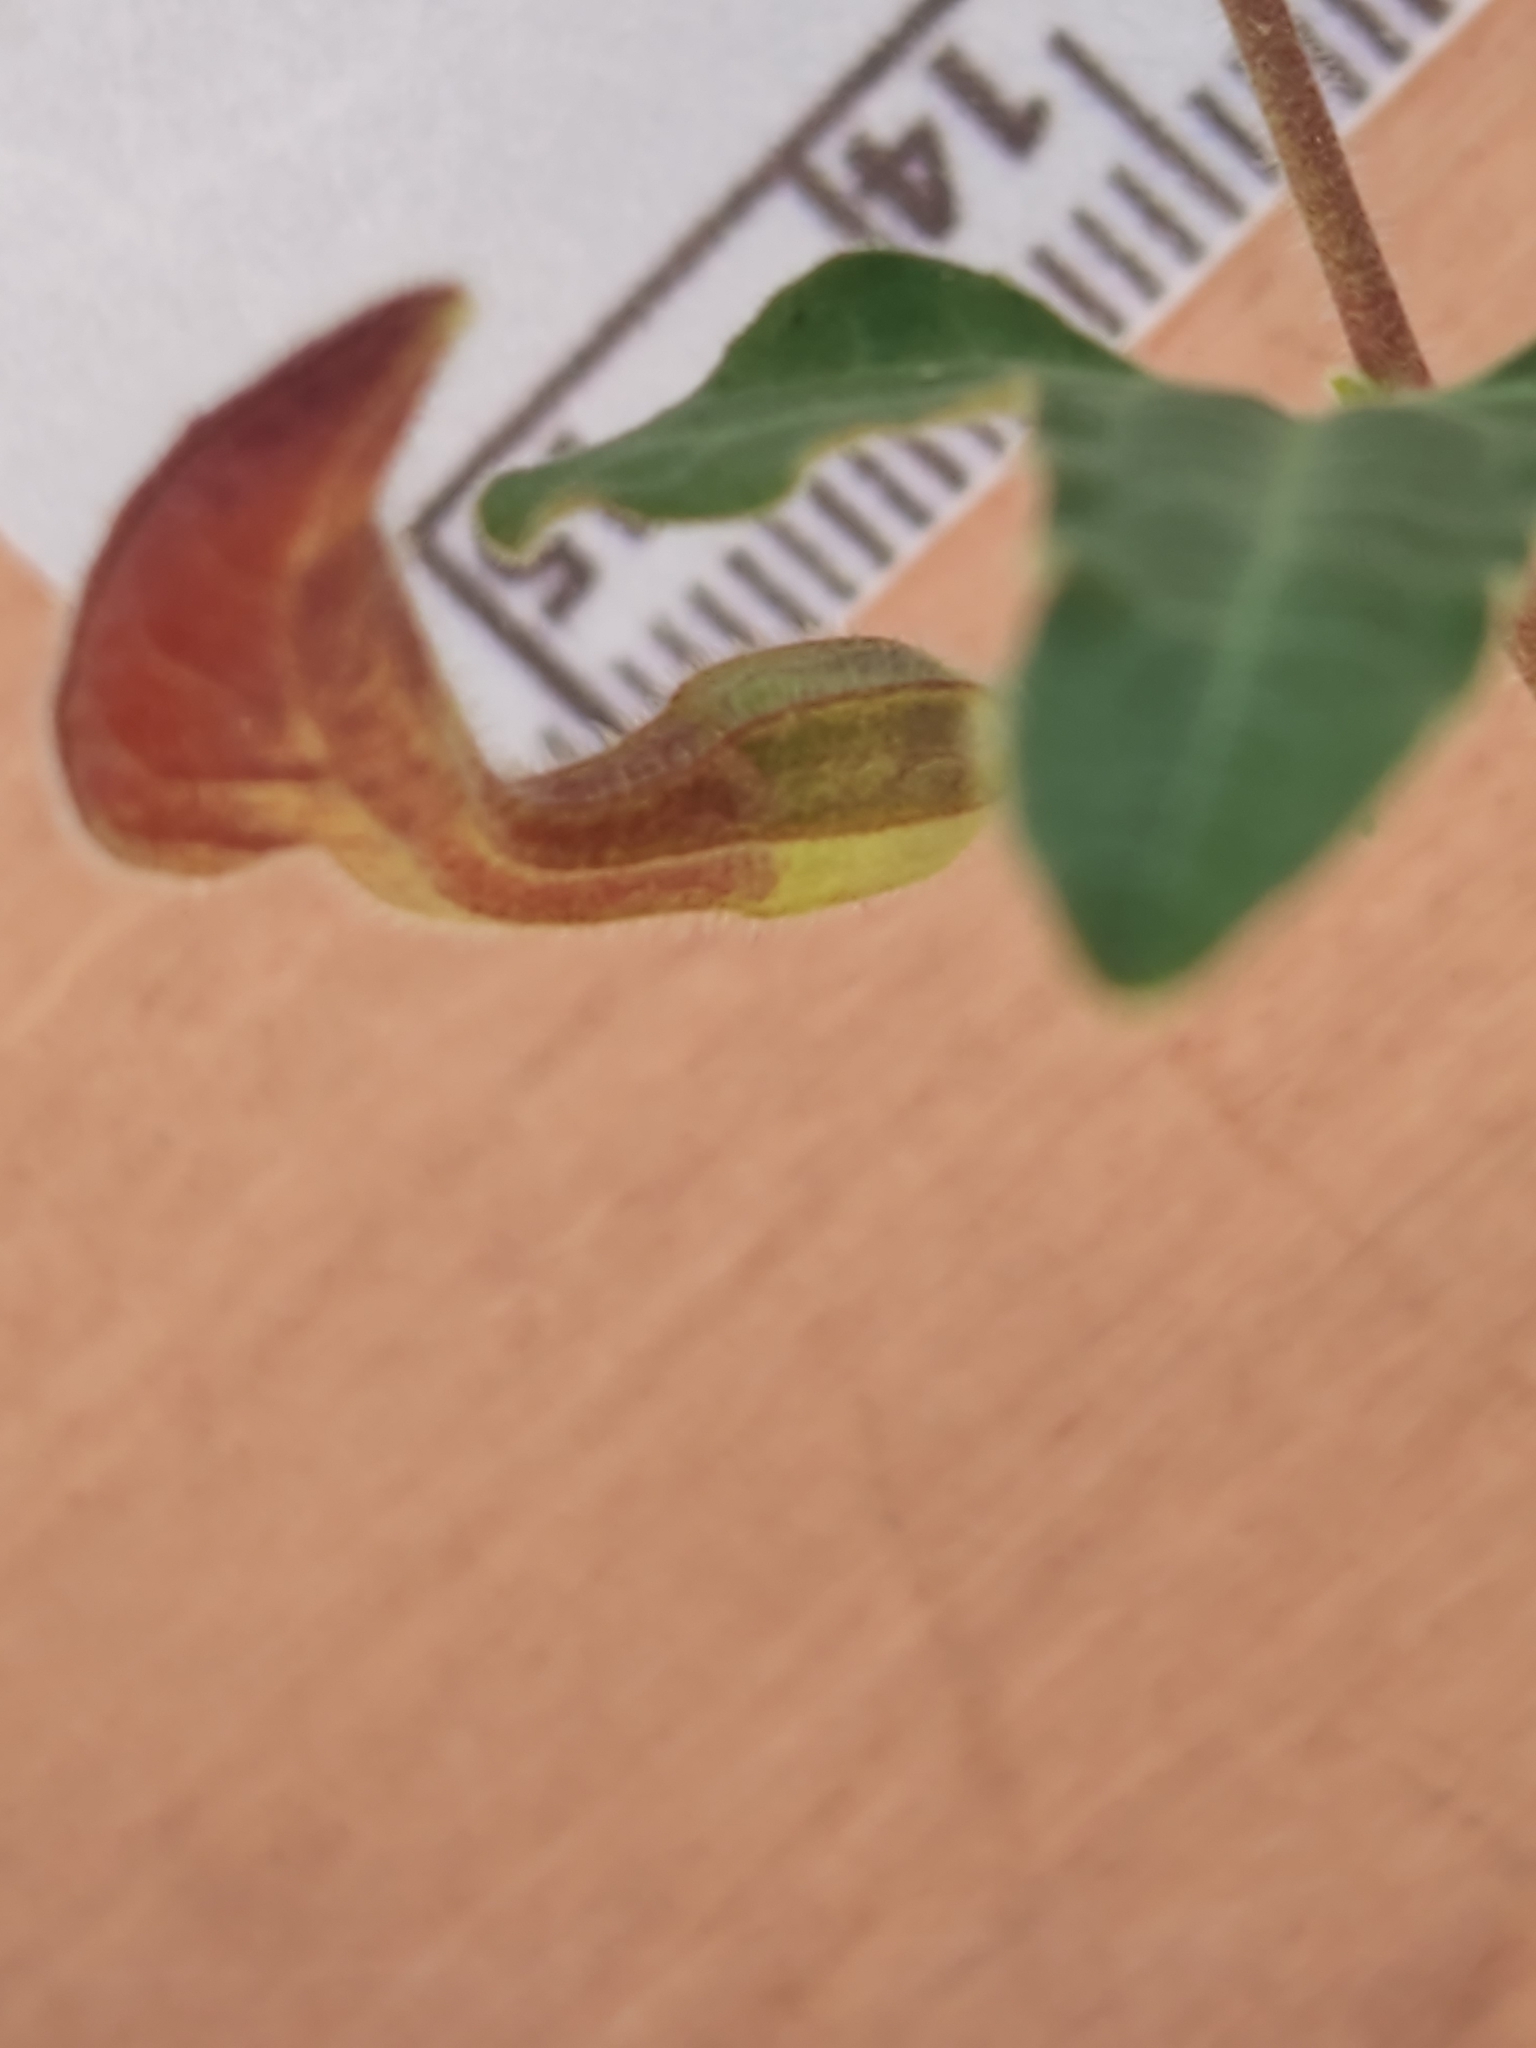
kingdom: Plantae
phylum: Tracheophyta
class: Magnoliopsida
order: Piperales
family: Aristolochiaceae
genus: Aristolochia
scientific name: Aristolochia coryi
